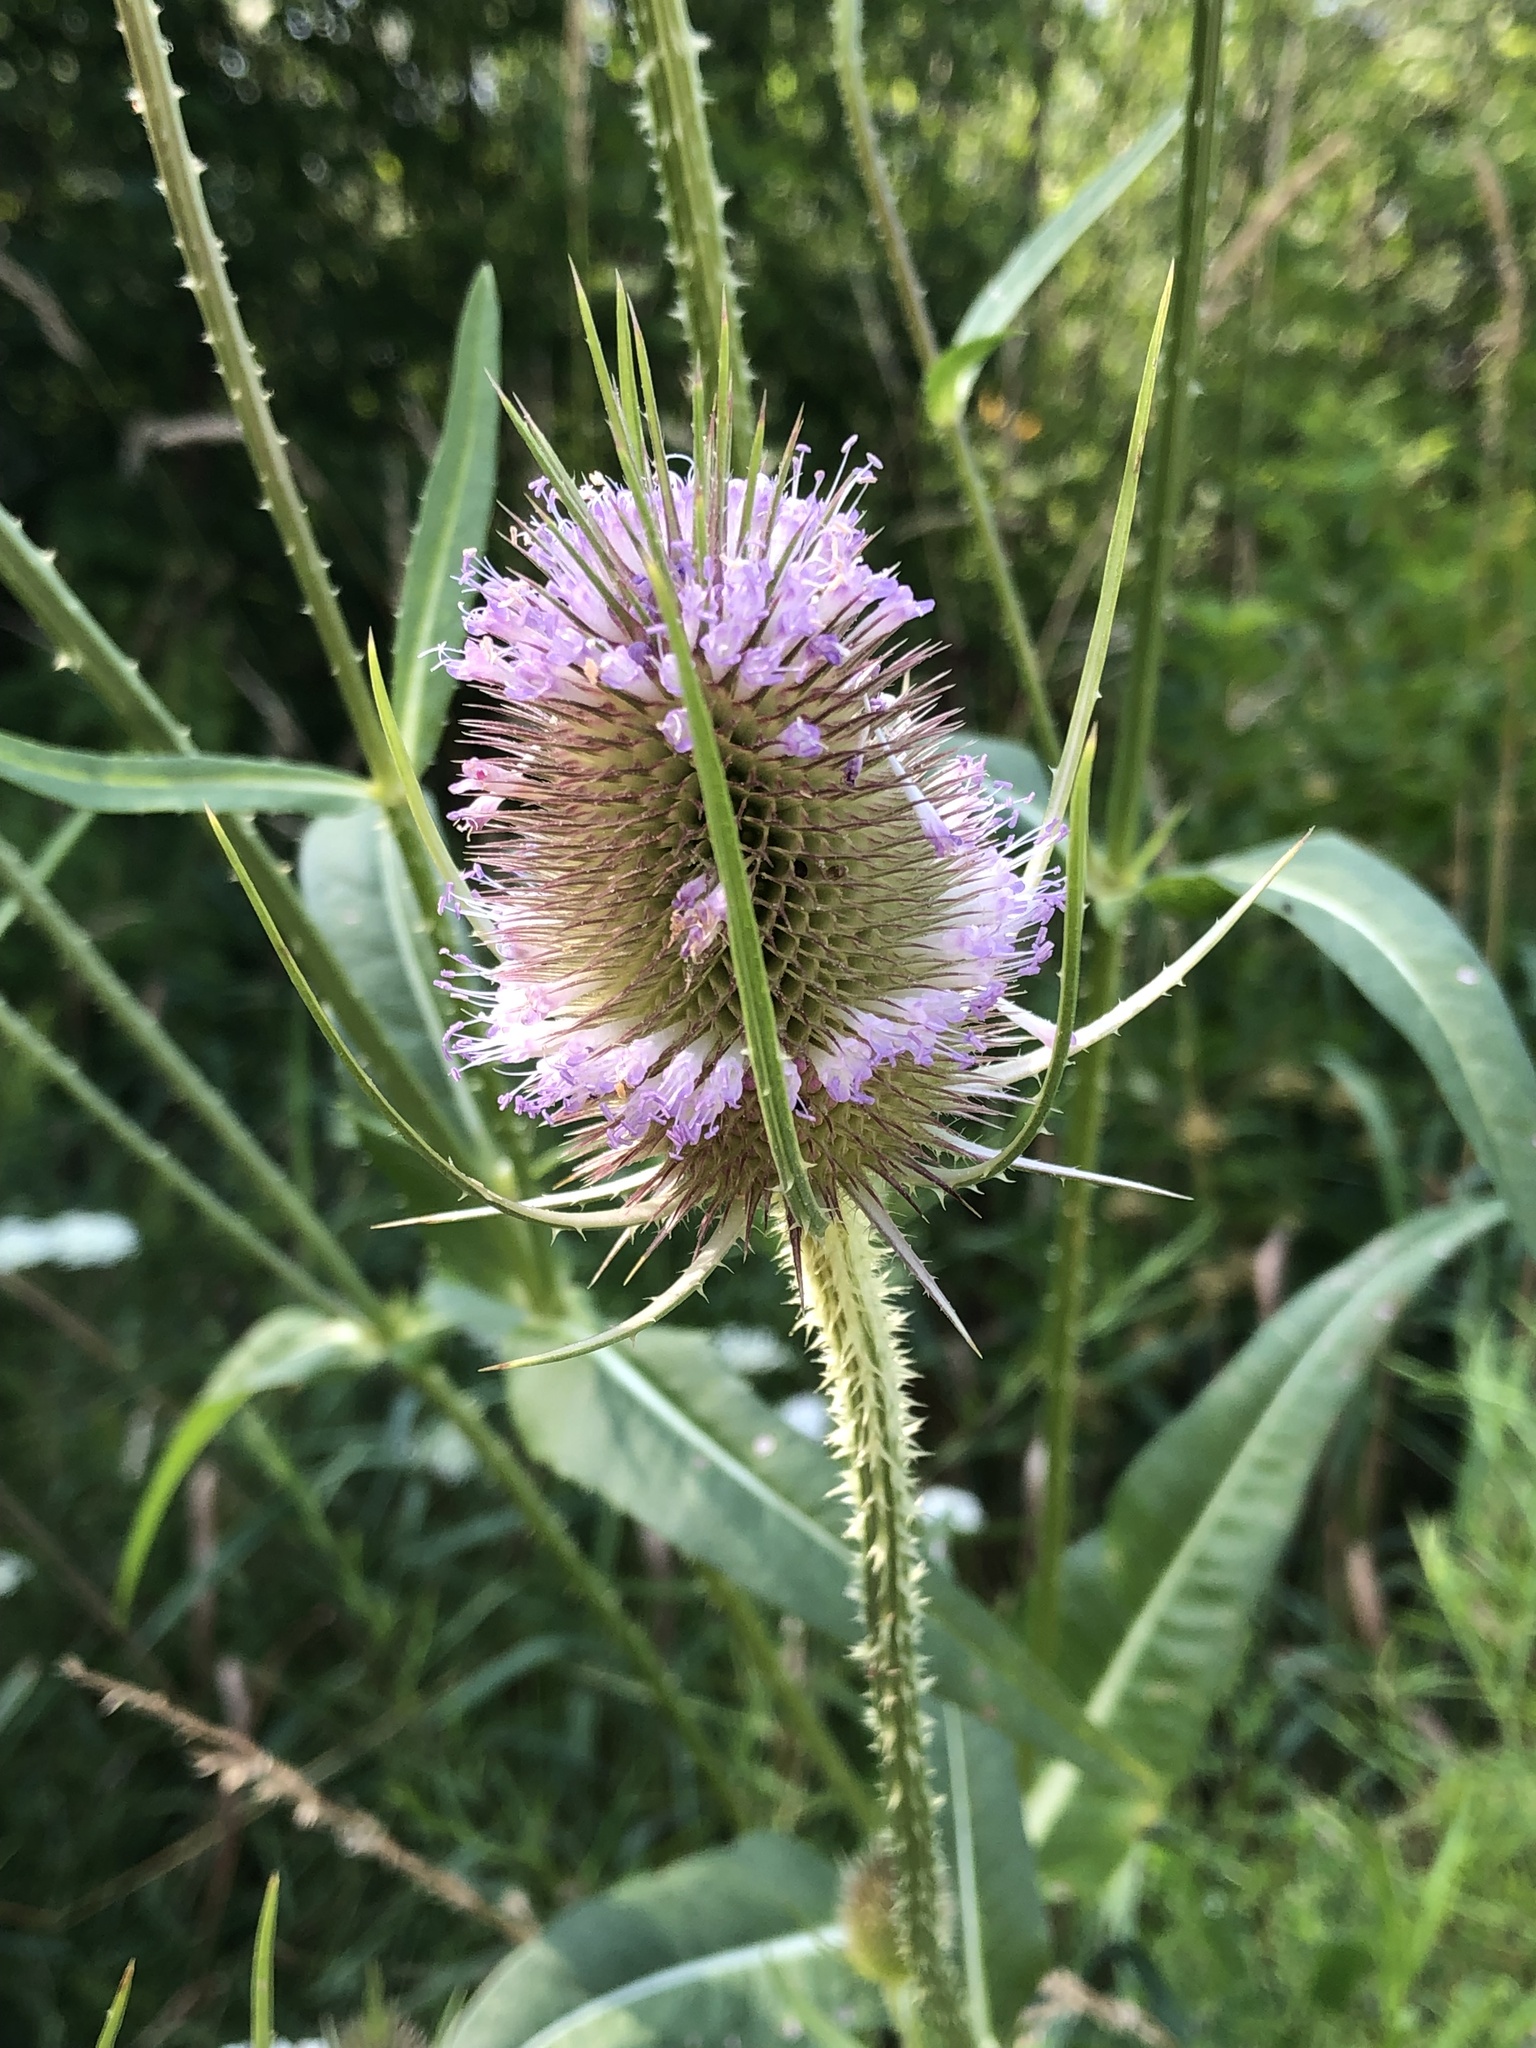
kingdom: Plantae
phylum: Tracheophyta
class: Magnoliopsida
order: Dipsacales
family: Caprifoliaceae
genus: Dipsacus
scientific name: Dipsacus fullonum
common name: Teasel
